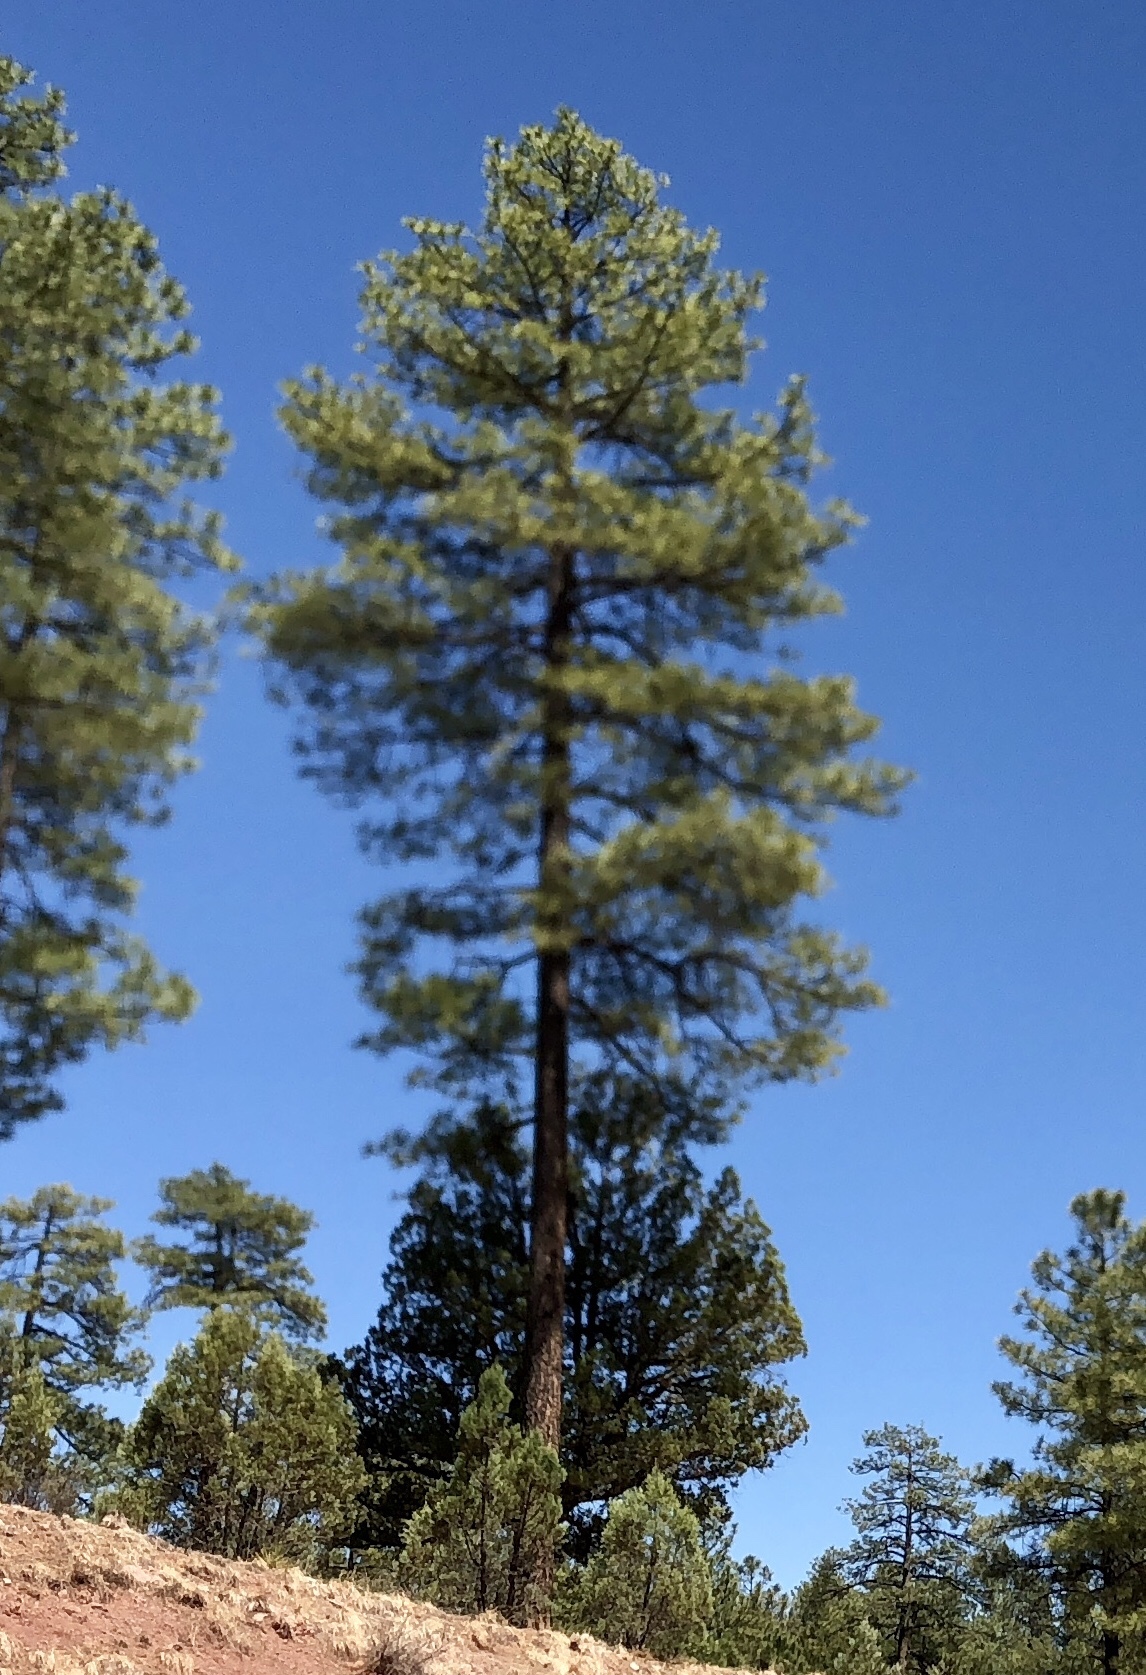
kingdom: Plantae
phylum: Tracheophyta
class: Pinopsida
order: Pinales
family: Pinaceae
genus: Pinus
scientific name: Pinus ponderosa
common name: Western yellow-pine
